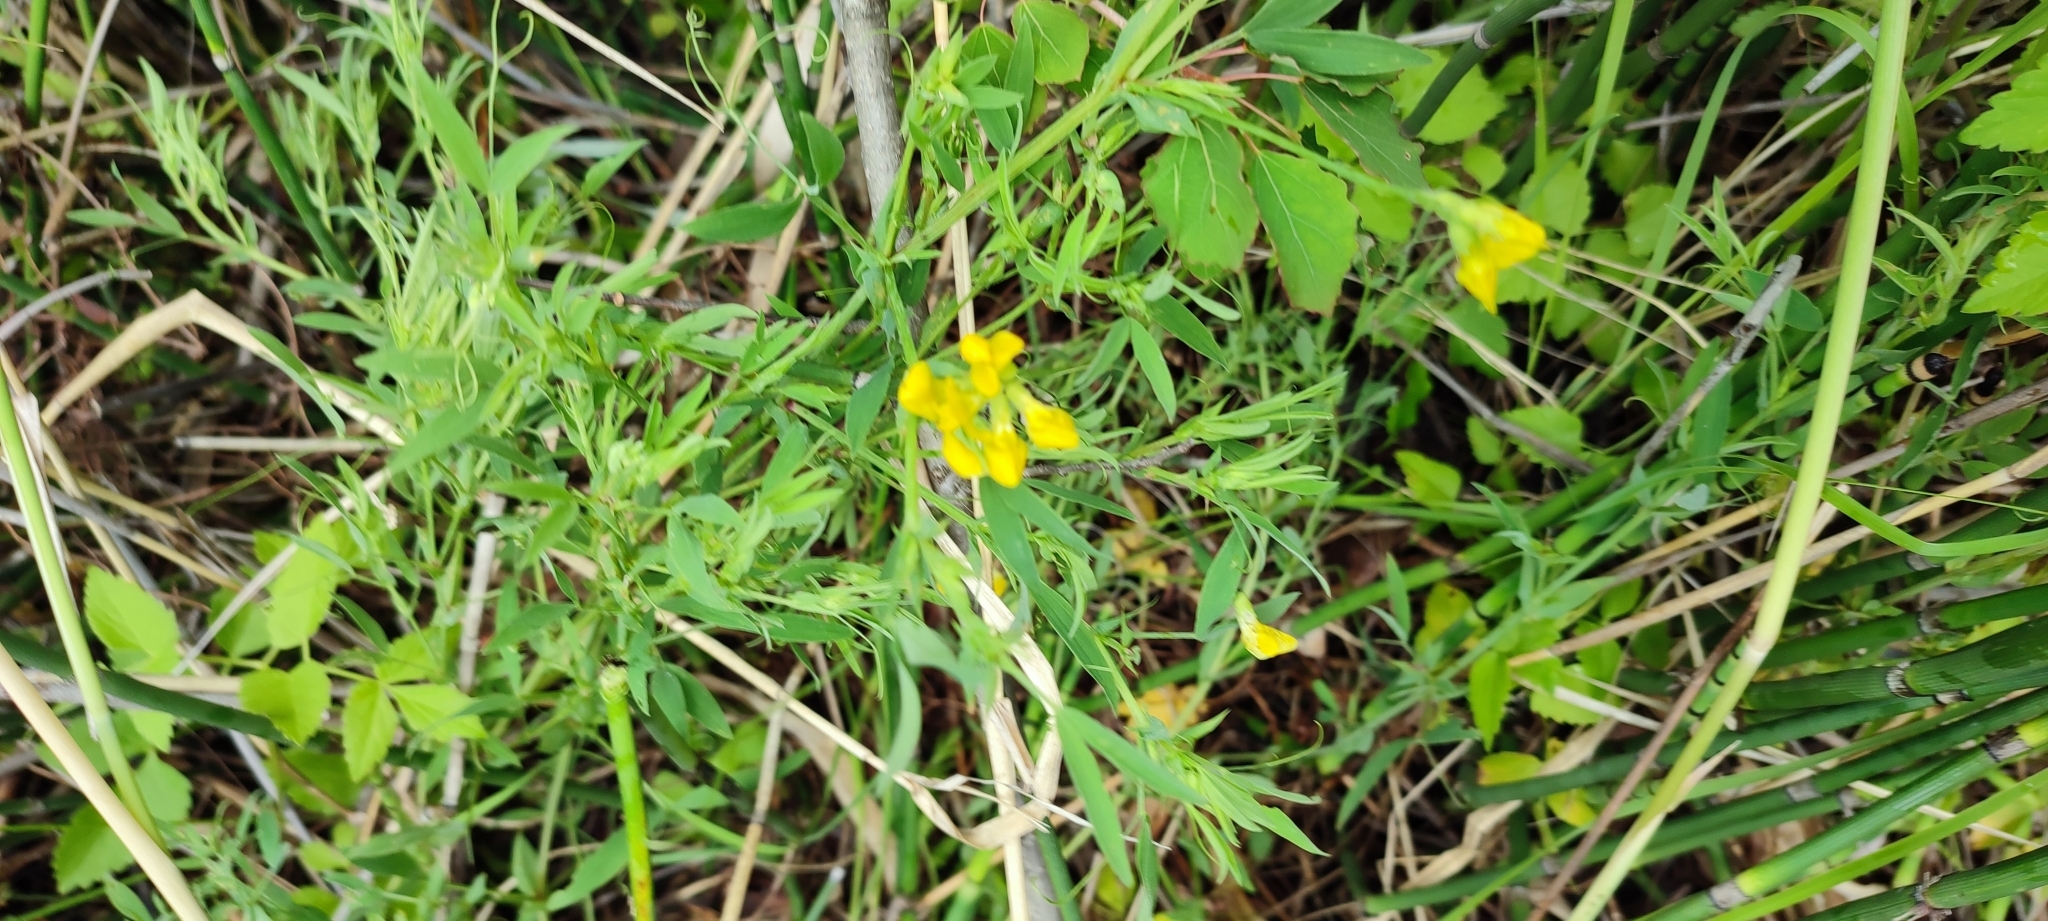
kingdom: Plantae
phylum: Tracheophyta
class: Magnoliopsida
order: Fabales
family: Fabaceae
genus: Lathyrus
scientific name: Lathyrus pratensis
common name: Meadow vetchling
